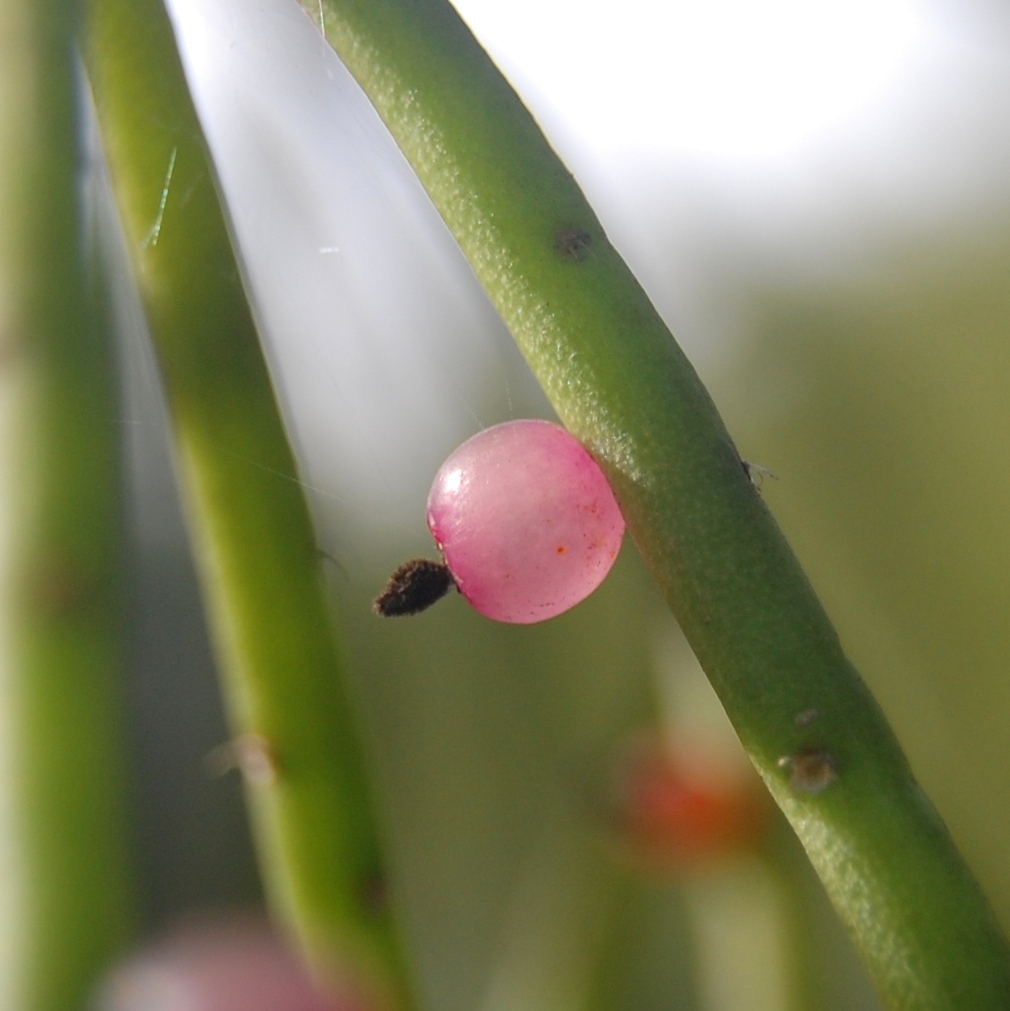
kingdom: Plantae
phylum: Tracheophyta
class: Magnoliopsida
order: Caryophyllales
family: Cactaceae
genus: Rhipsalis
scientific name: Rhipsalis teres
